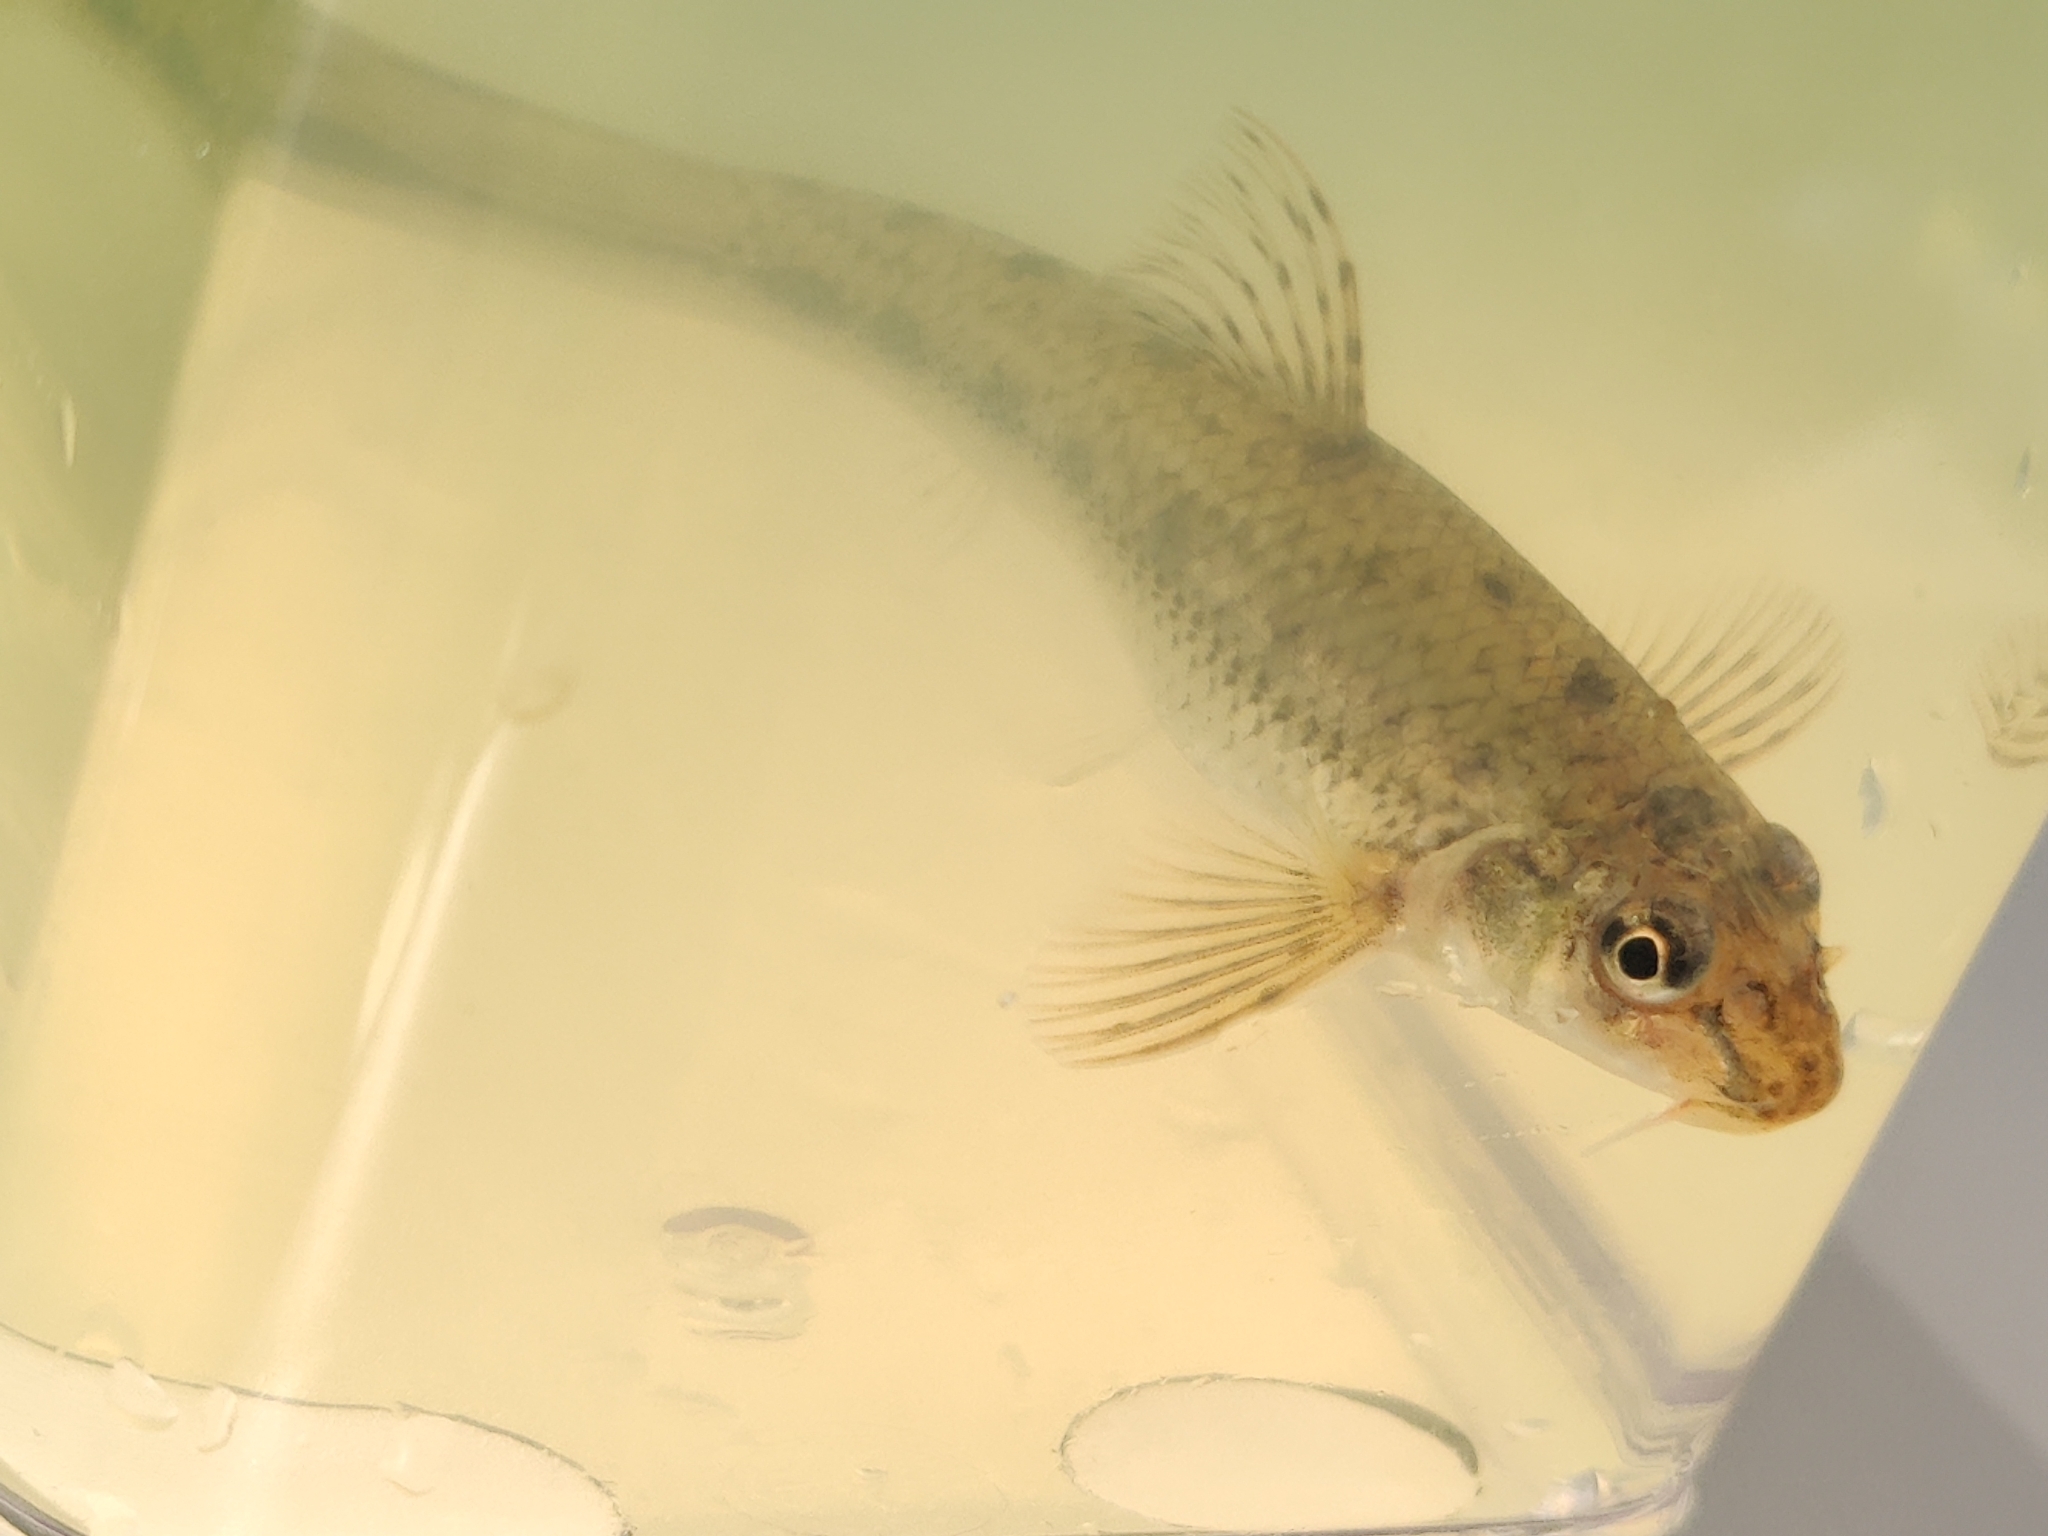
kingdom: Animalia
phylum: Chordata
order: Cypriniformes
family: Cyprinidae
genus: Gobio
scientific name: Gobio gobio
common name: Gudgeon
